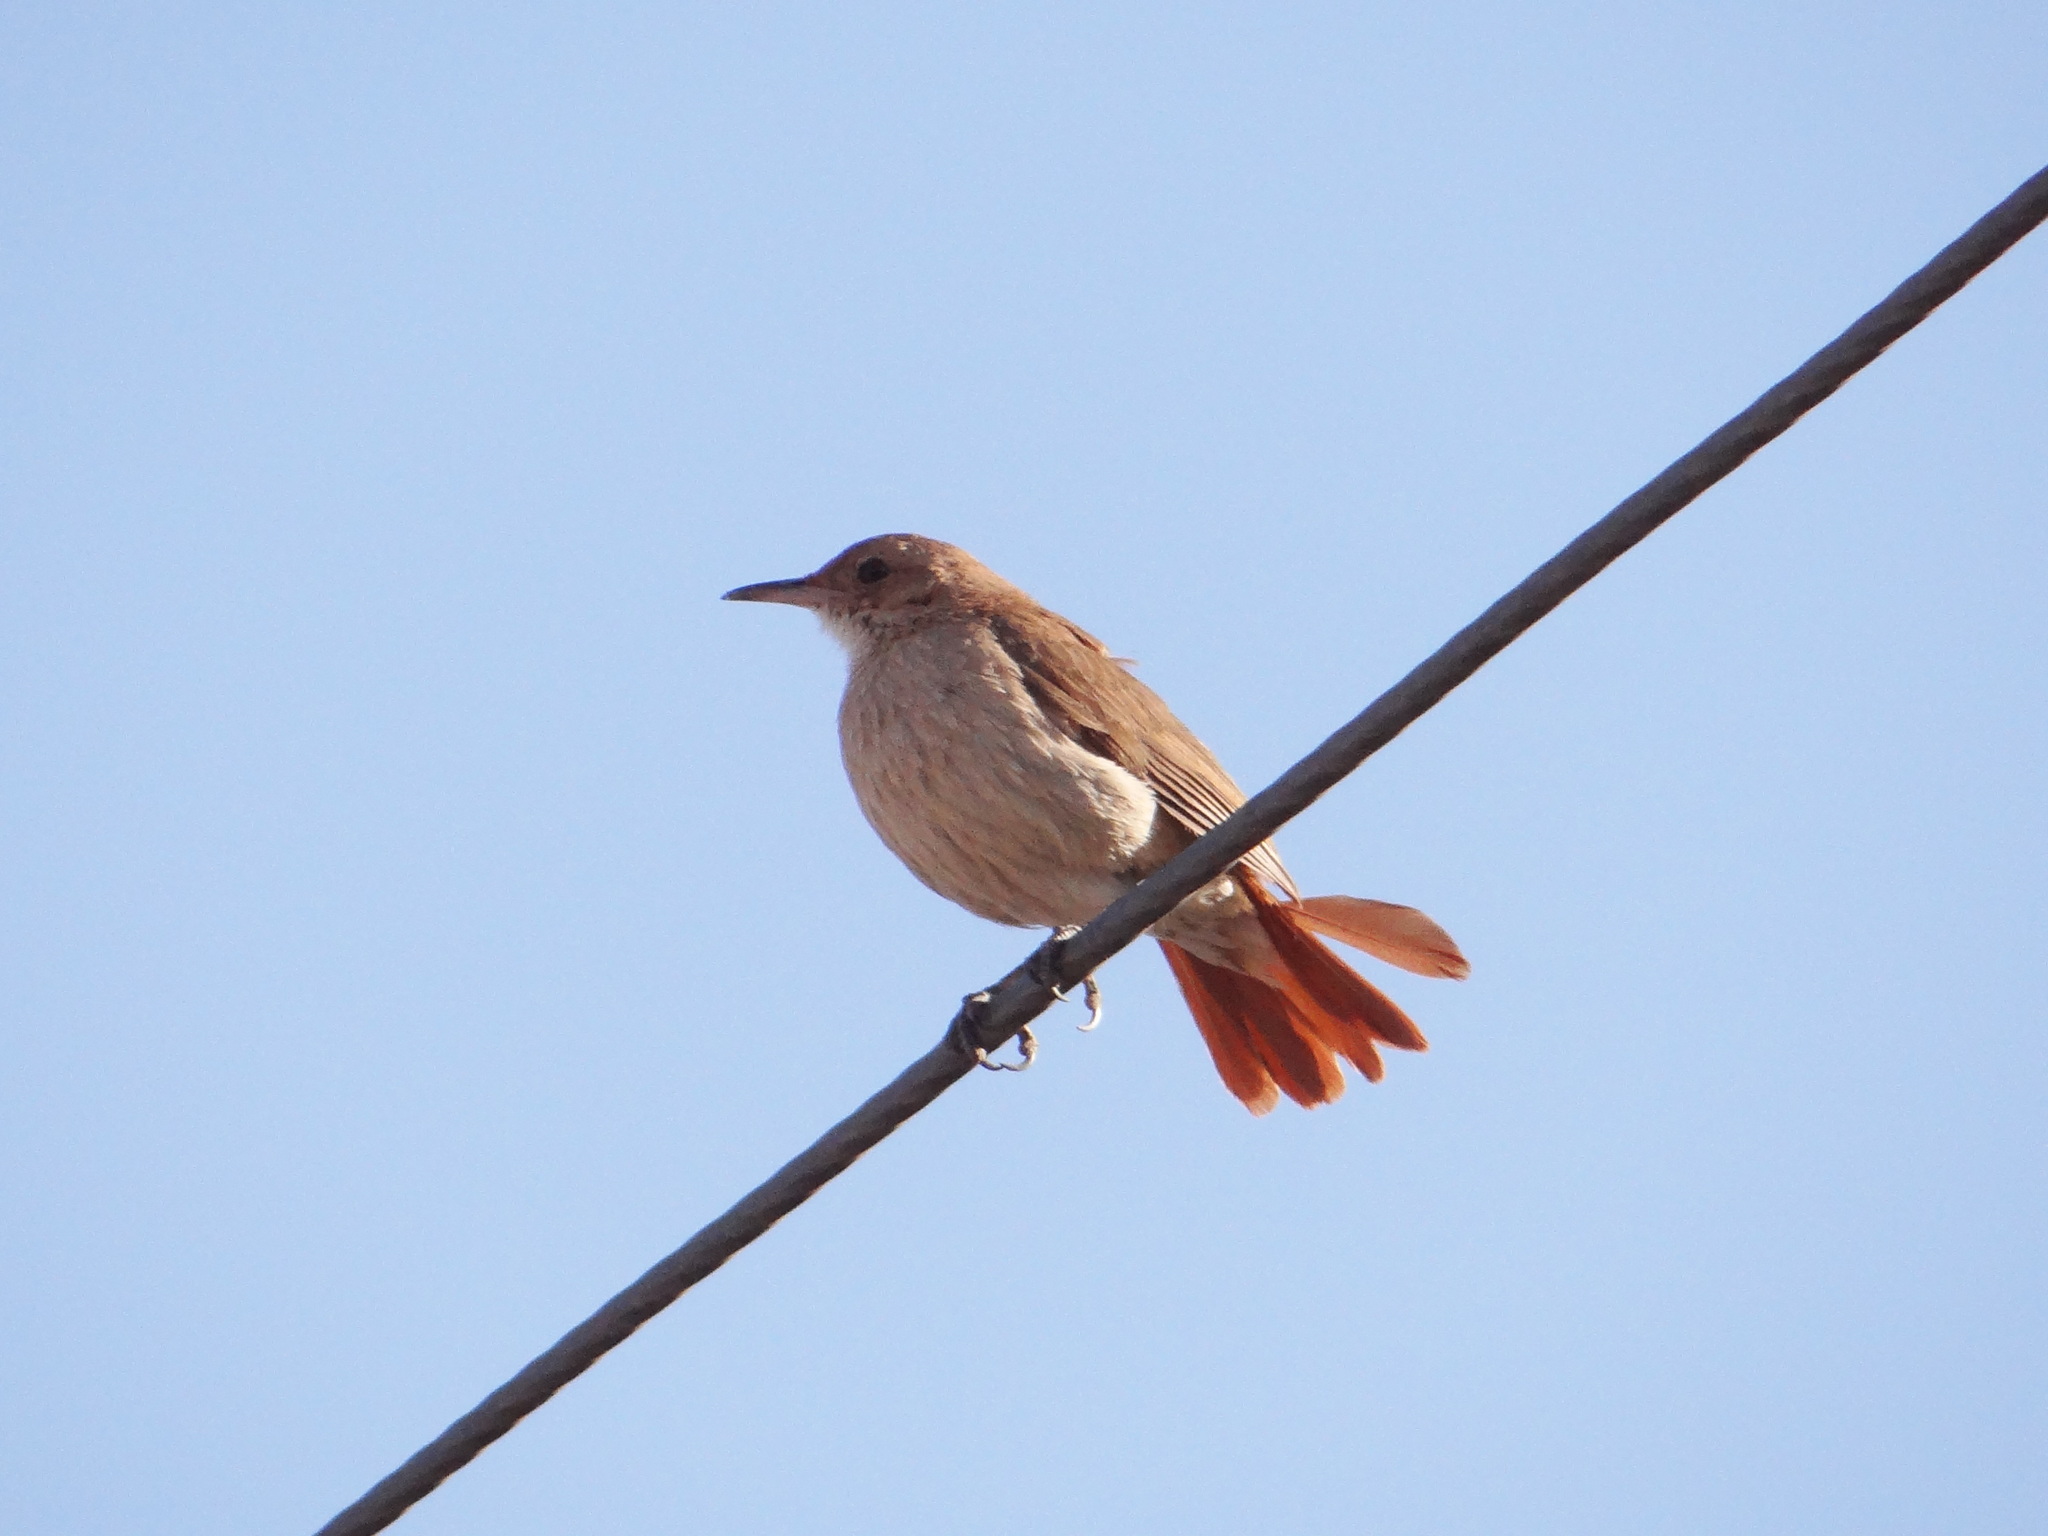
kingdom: Animalia
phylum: Chordata
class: Aves
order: Passeriformes
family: Furnariidae
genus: Furnarius
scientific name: Furnarius rufus
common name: Rufous hornero
